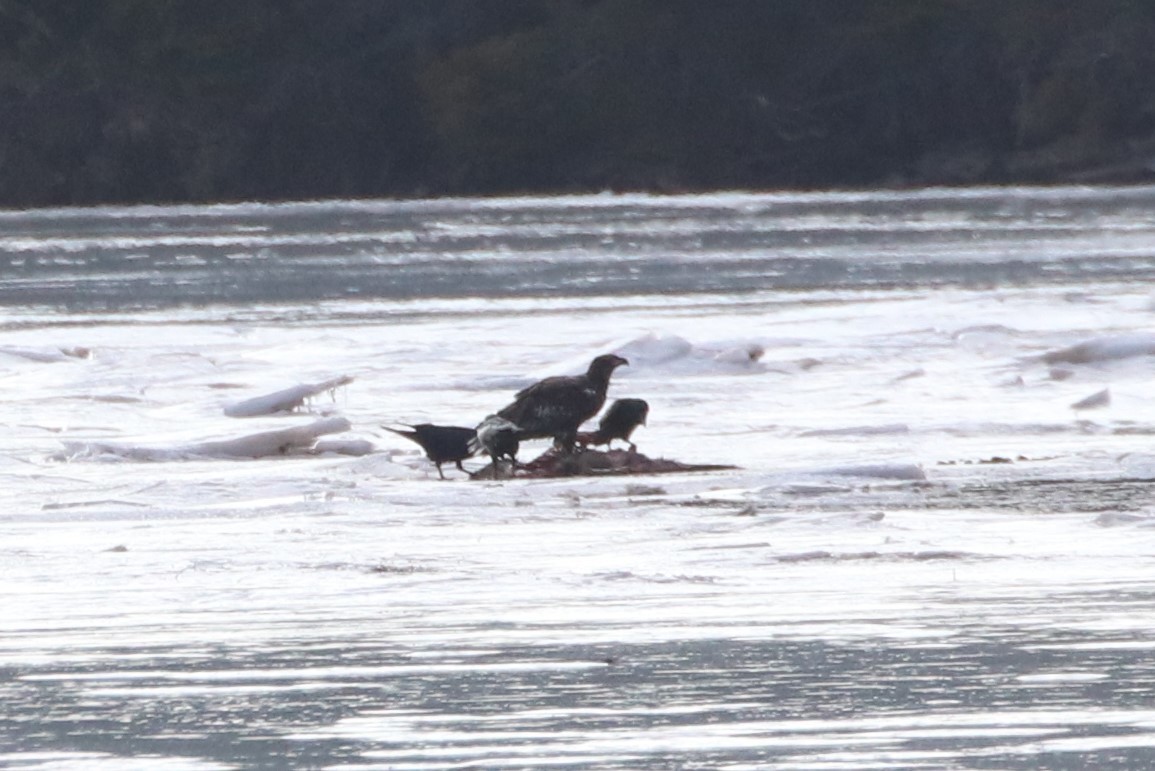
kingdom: Animalia
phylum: Chordata
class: Aves
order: Accipitriformes
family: Accipitridae
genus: Haliaeetus
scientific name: Haliaeetus leucocephalus
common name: Bald eagle
